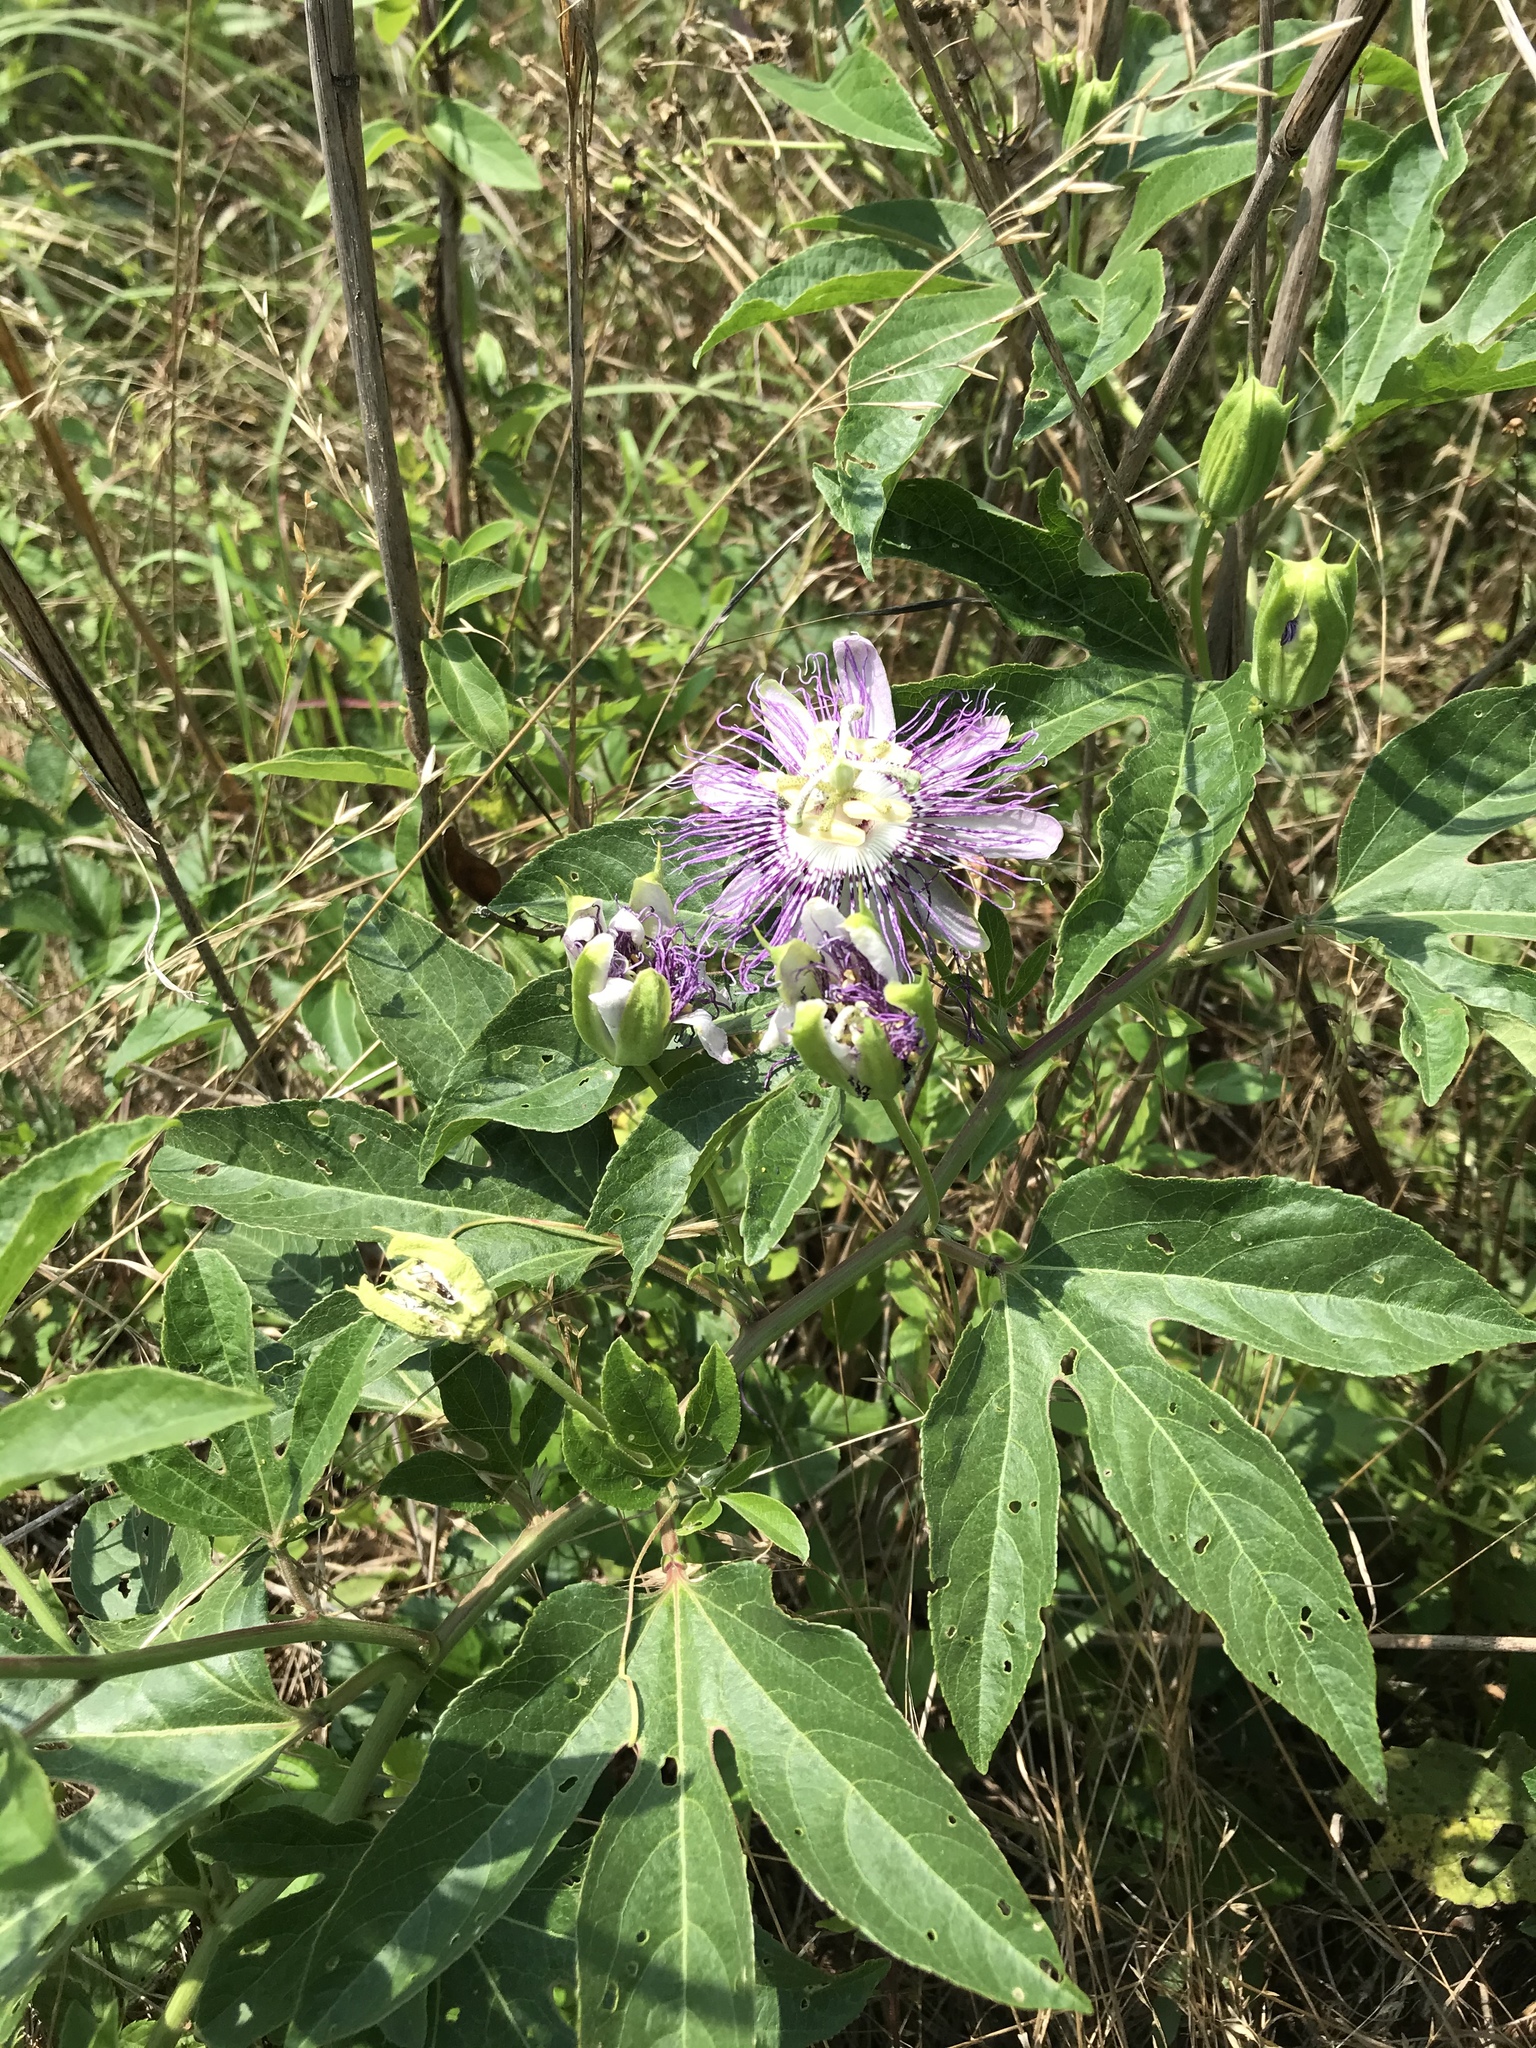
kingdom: Plantae
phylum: Tracheophyta
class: Magnoliopsida
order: Malpighiales
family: Passifloraceae
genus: Passiflora
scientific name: Passiflora incarnata
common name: Apricot-vine
